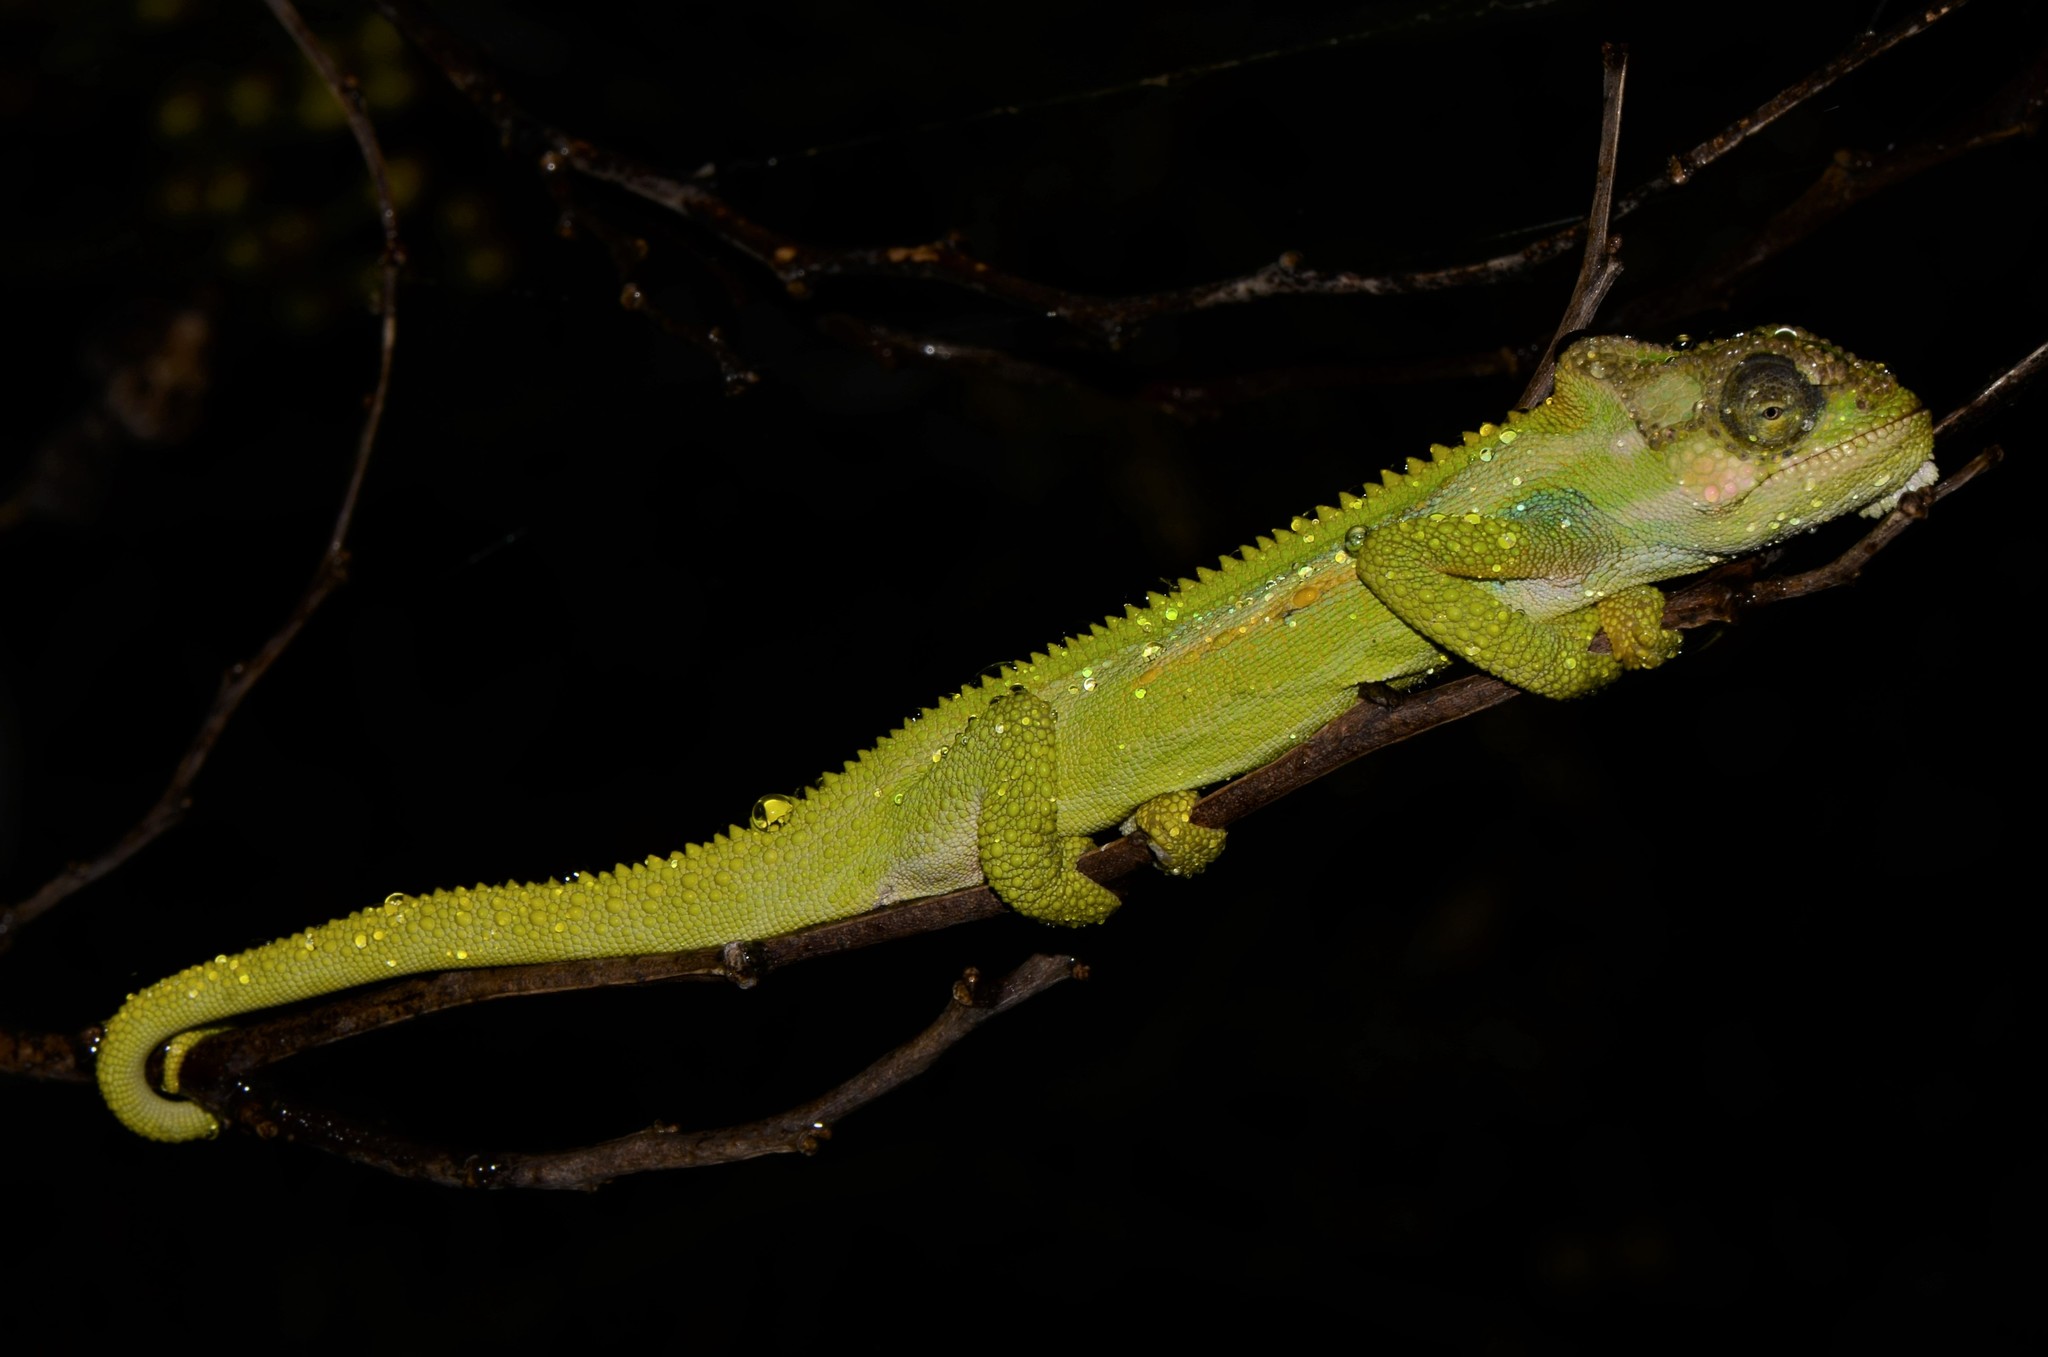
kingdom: Animalia
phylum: Chordata
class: Squamata
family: Chamaeleonidae
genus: Bradypodion
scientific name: Bradypodion pumilum
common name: Cape dwarf chameleon
